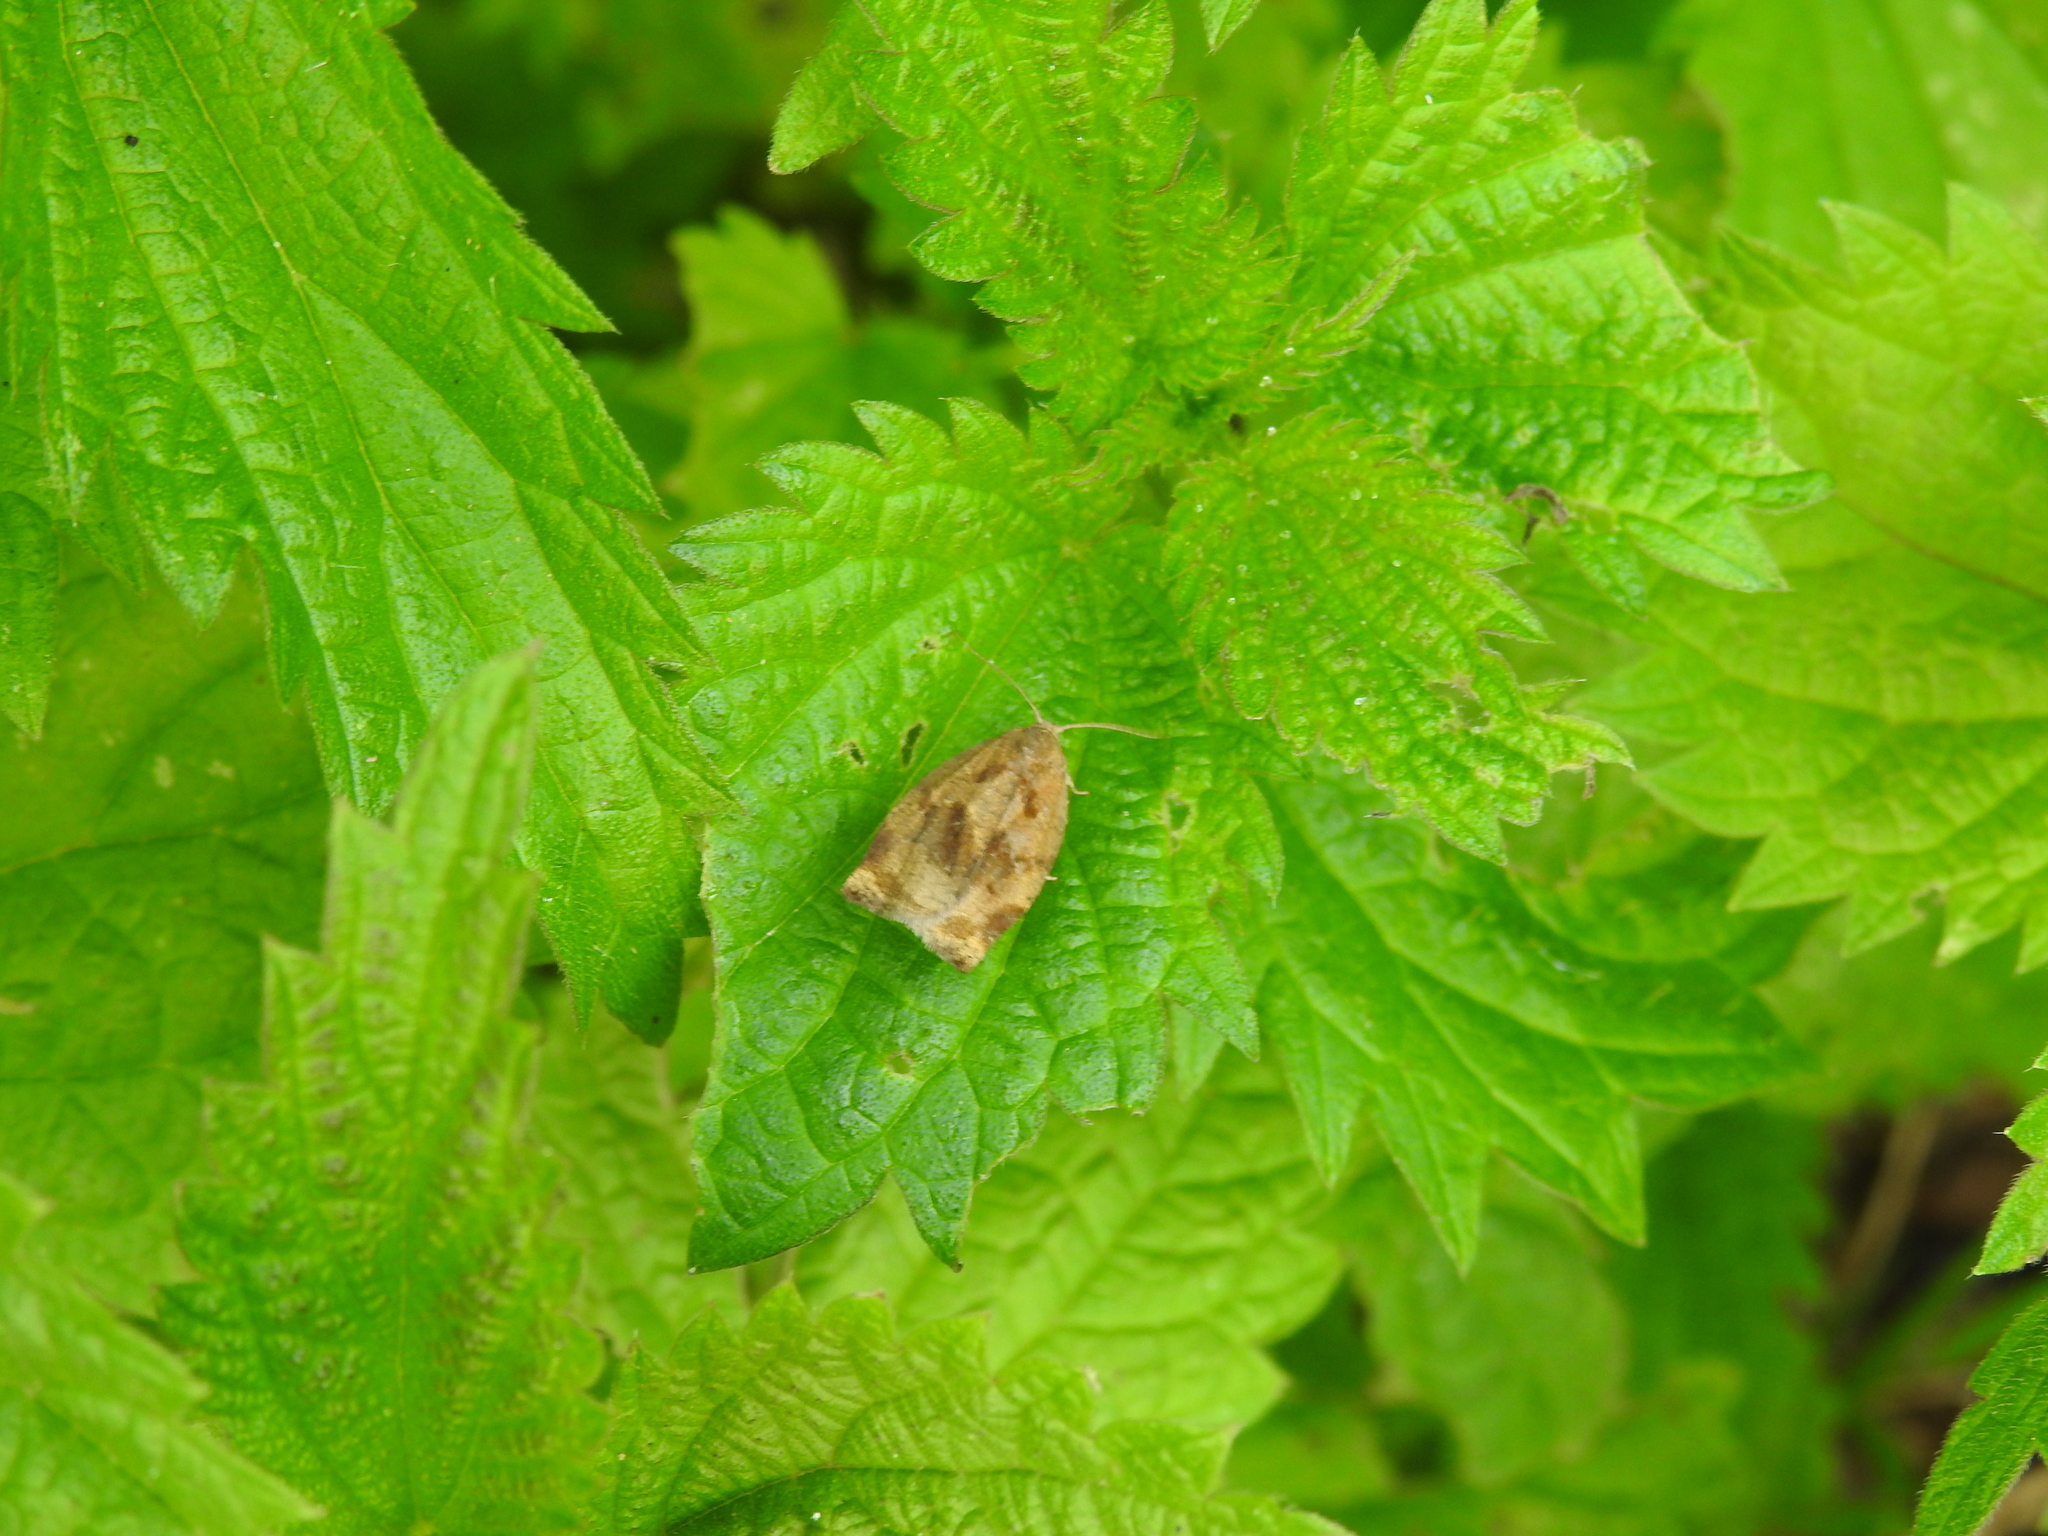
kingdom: Animalia
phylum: Arthropoda
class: Insecta
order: Lepidoptera
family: Tortricidae
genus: Archips
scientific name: Archips crataegana
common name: Brown oak tortrix
